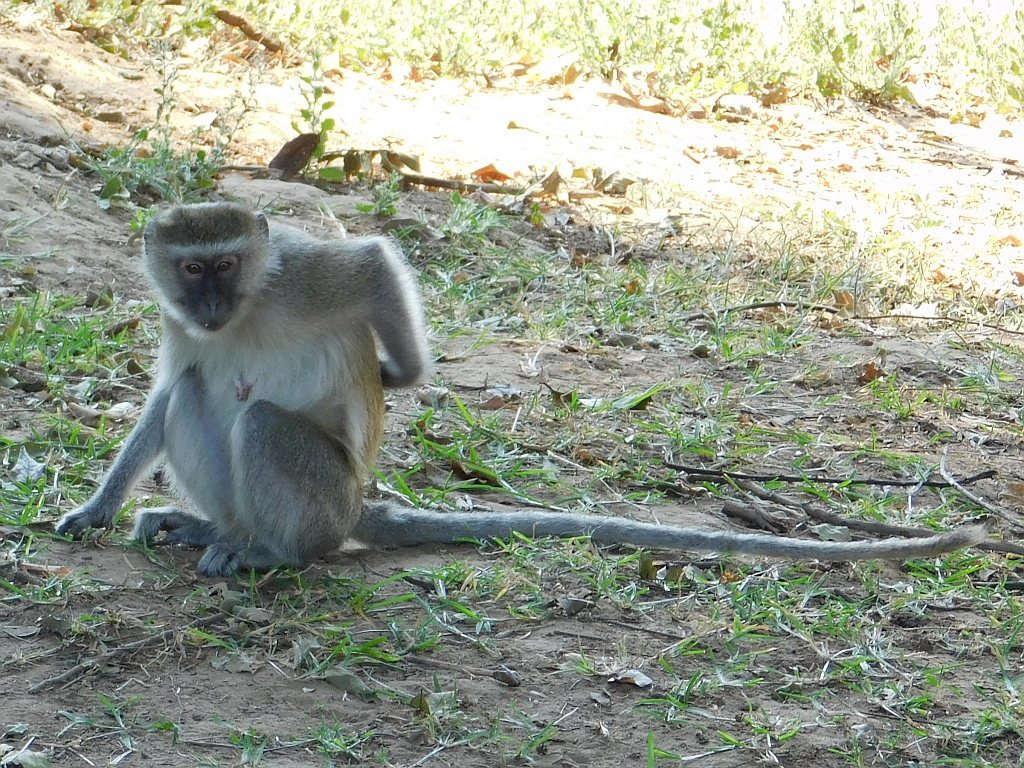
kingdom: Animalia
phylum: Chordata
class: Mammalia
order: Primates
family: Cercopithecidae
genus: Chlorocebus
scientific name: Chlorocebus pygerythrus
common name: Vervet monkey
